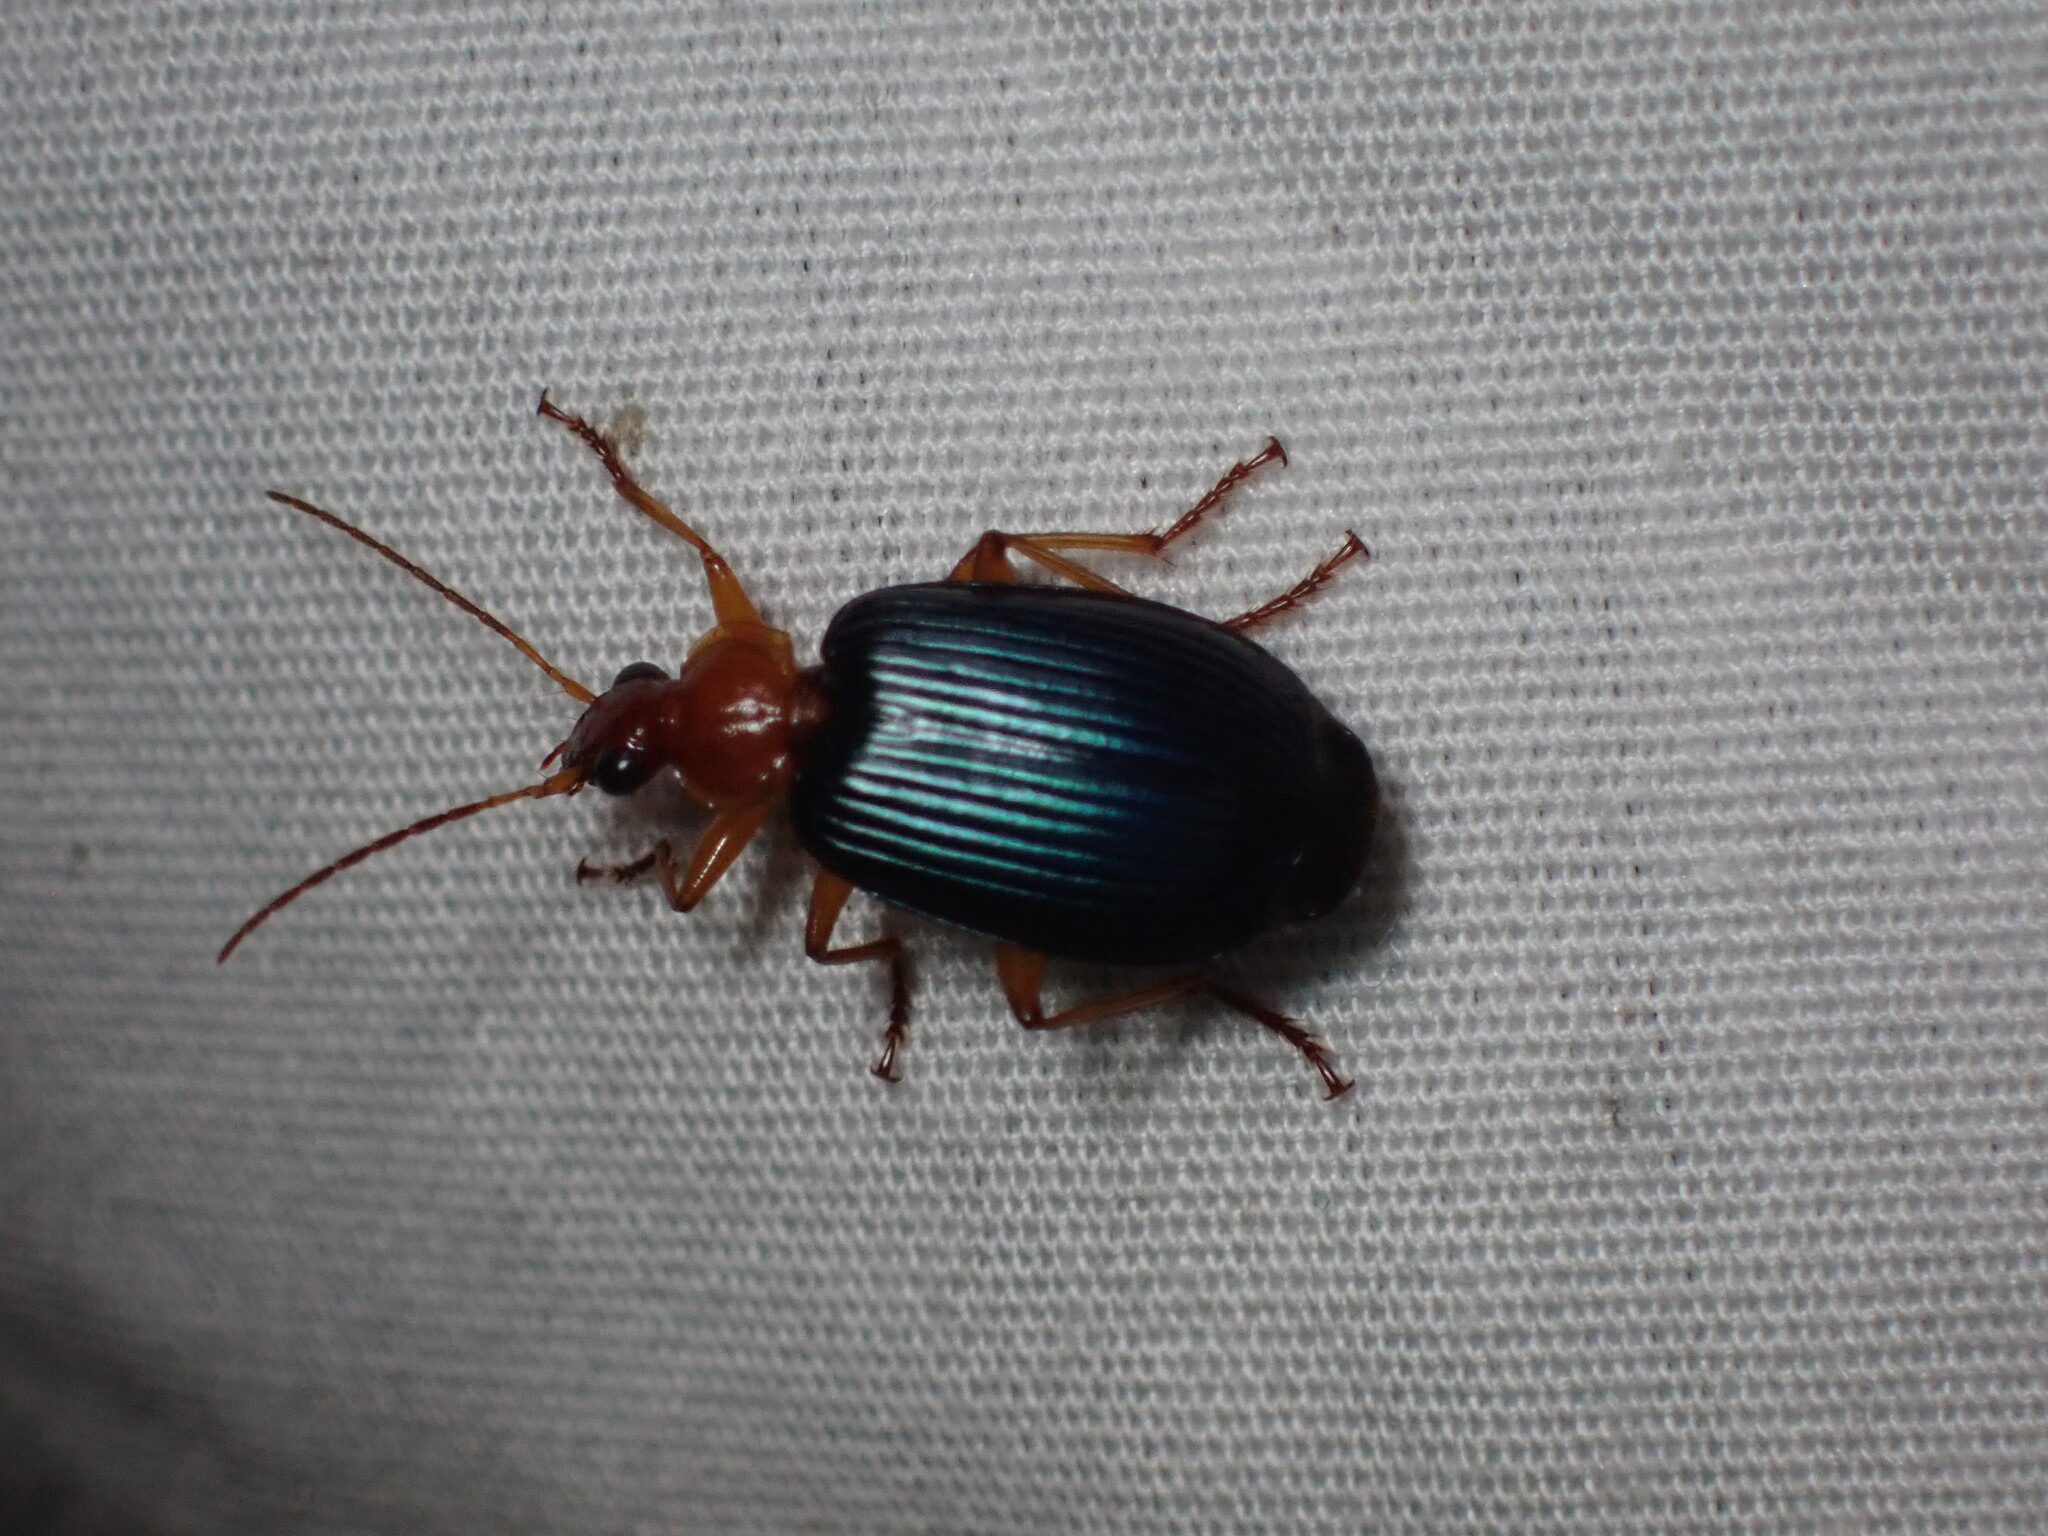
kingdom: Animalia
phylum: Arthropoda
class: Insecta
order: Coleoptera
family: Carabidae
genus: Lebia
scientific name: Lebia grandis
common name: Large foliage ground beetle
